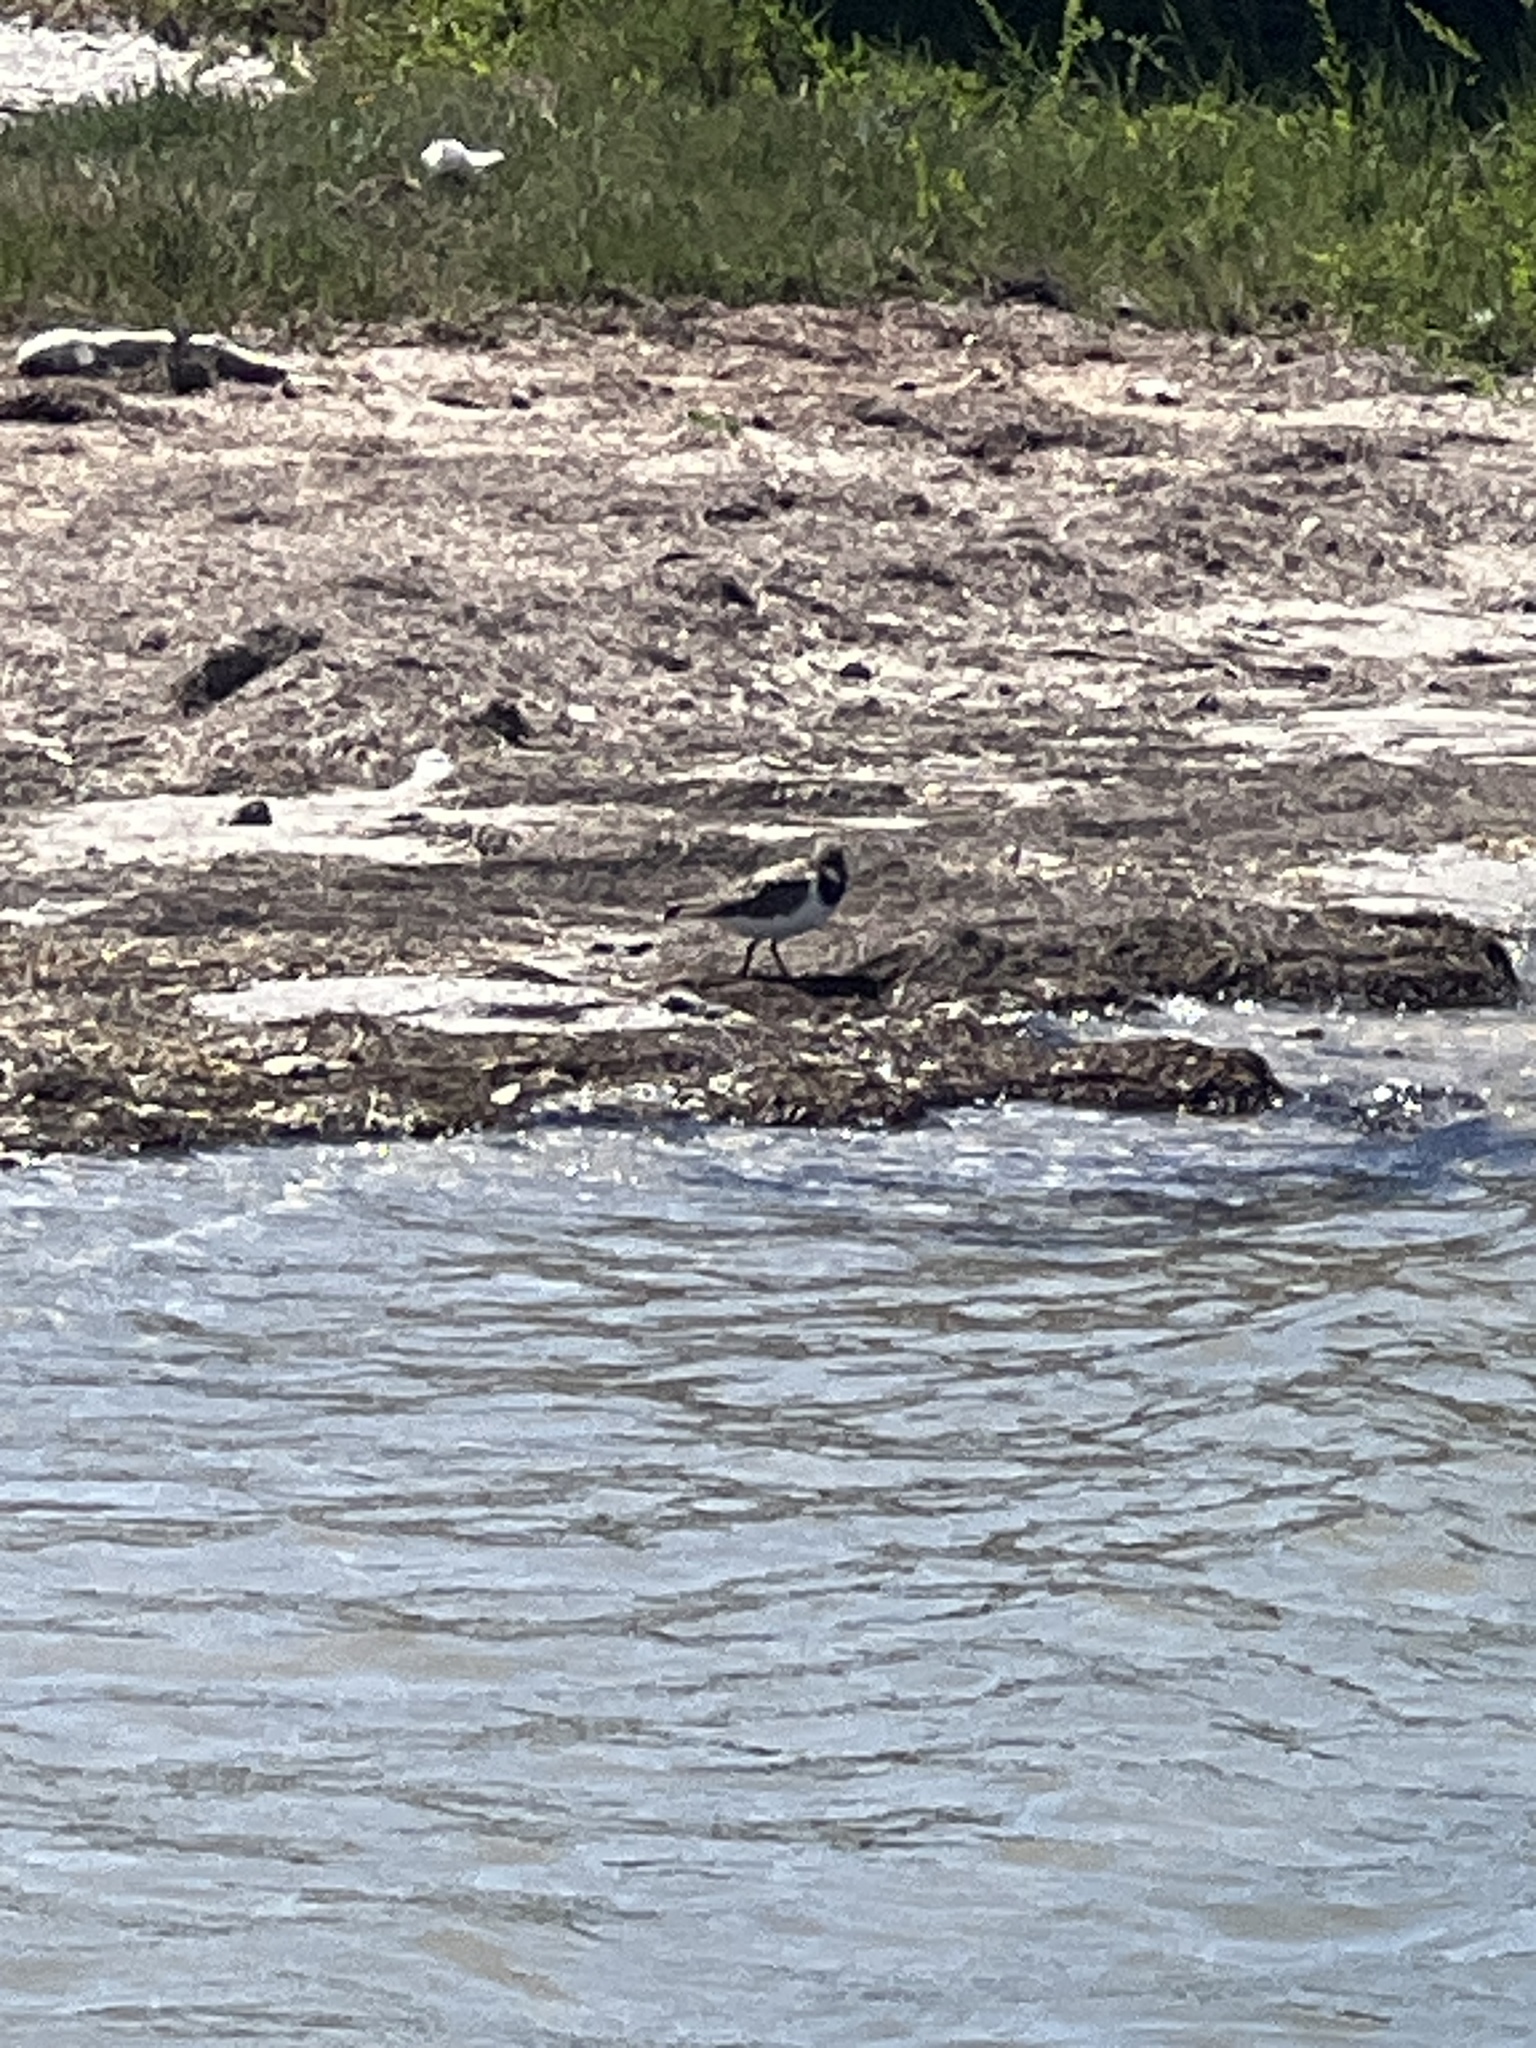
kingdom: Animalia
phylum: Chordata
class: Aves
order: Charadriiformes
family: Scolopacidae
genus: Arenaria
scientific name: Arenaria interpres
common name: Ruddy turnstone
